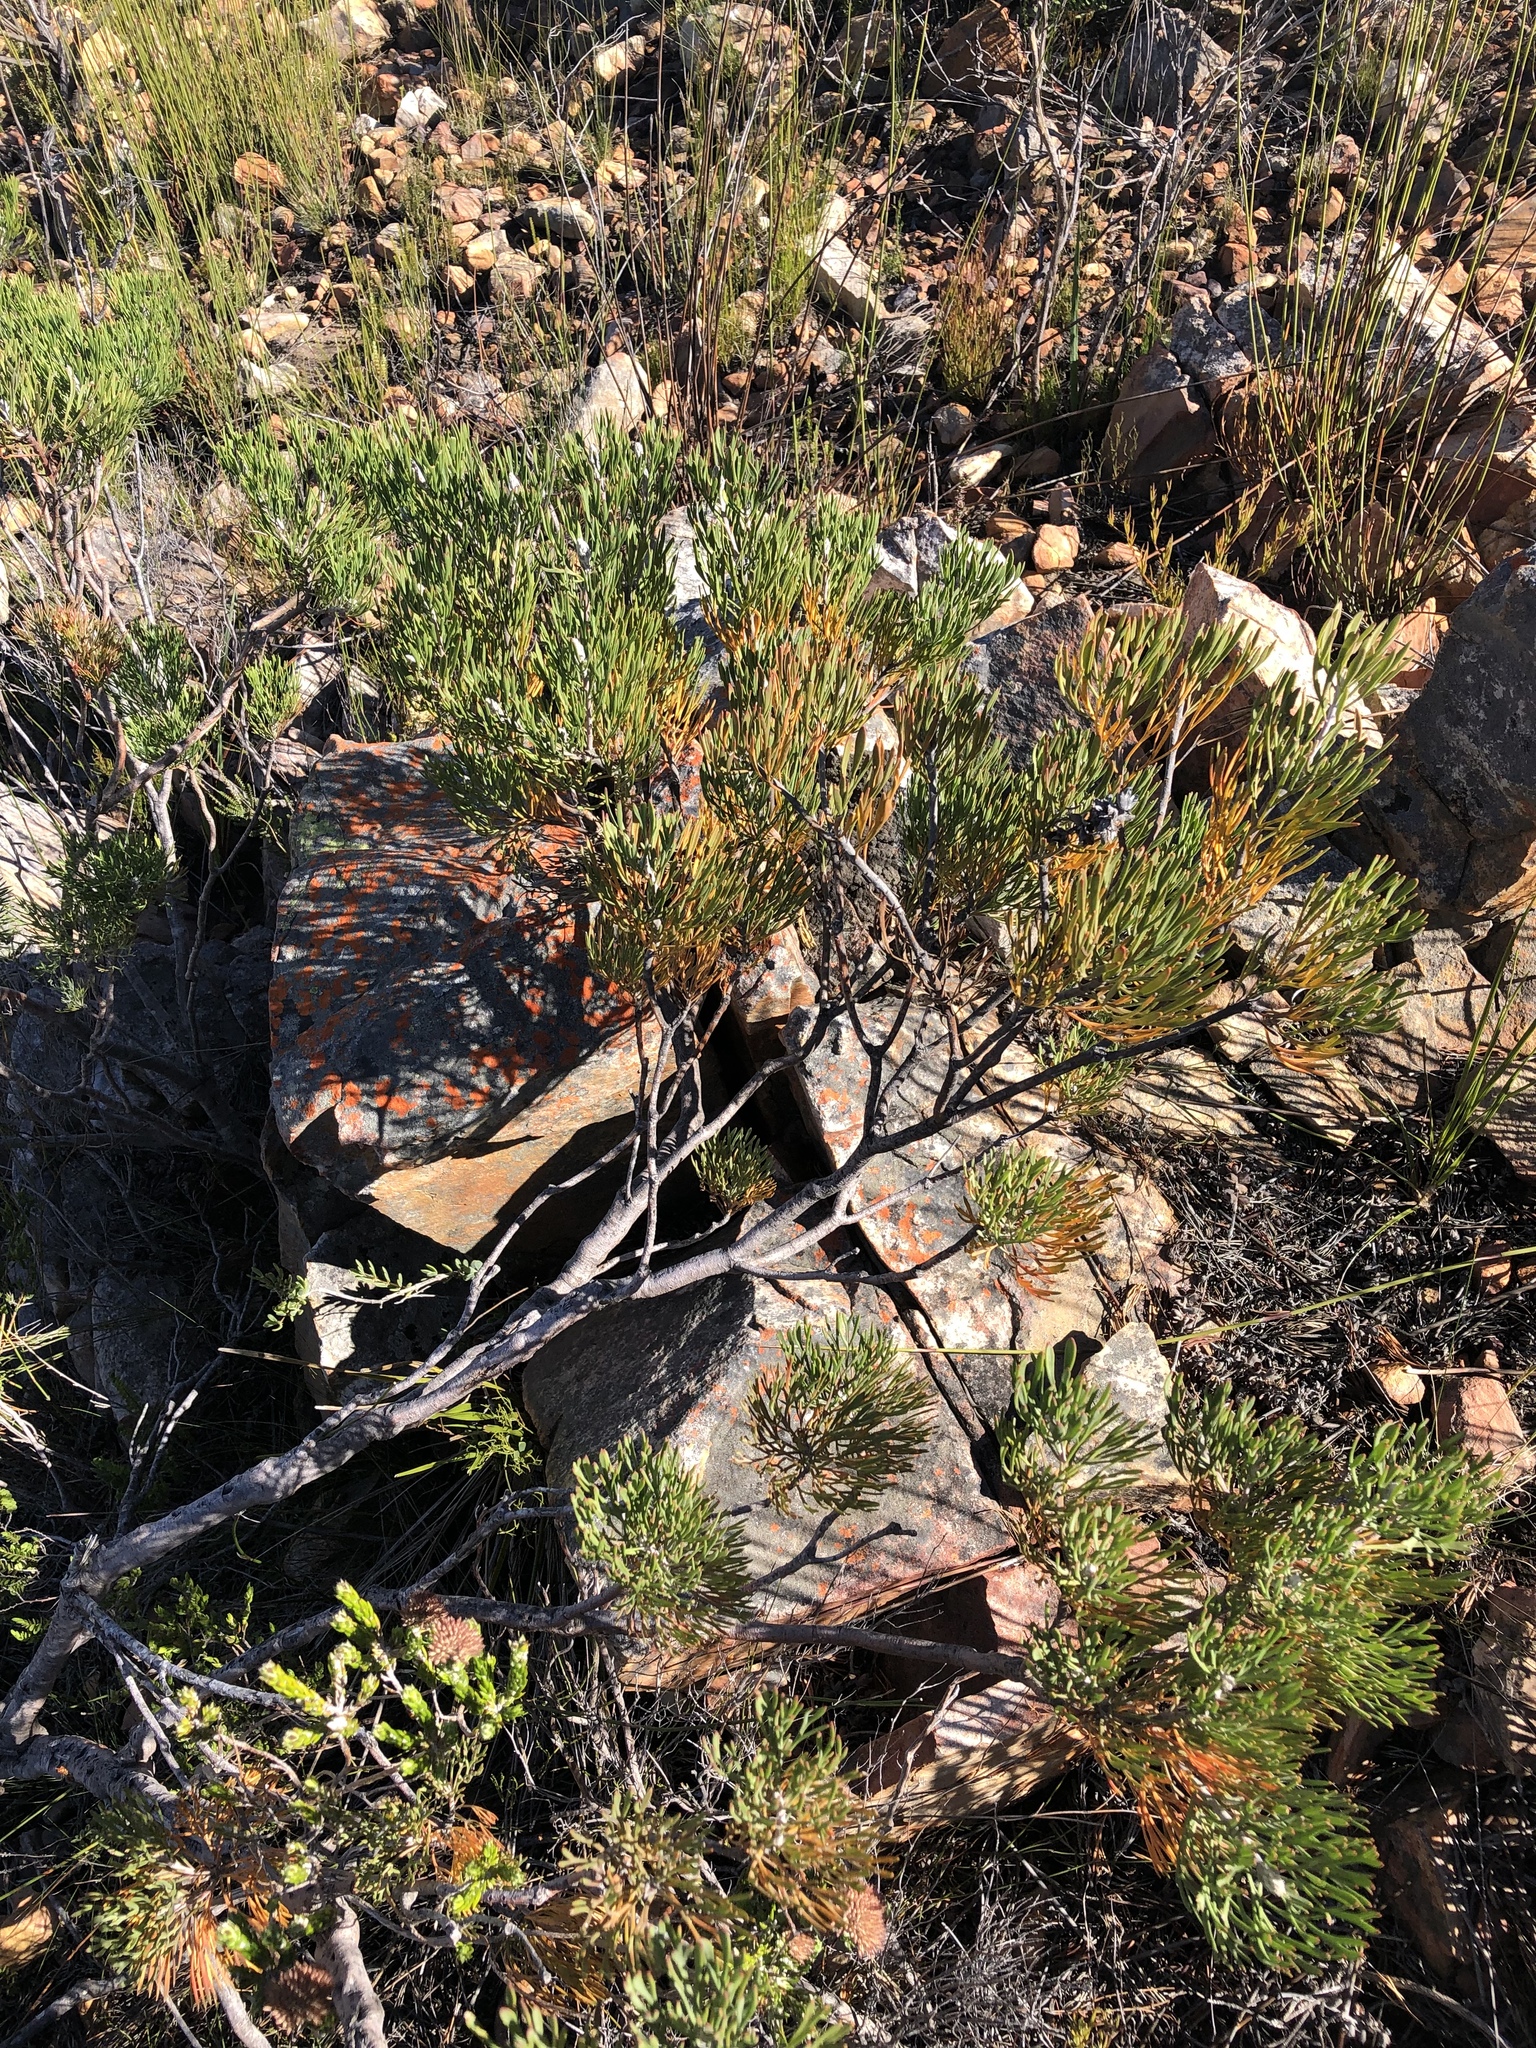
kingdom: Plantae
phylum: Tracheophyta
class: Magnoliopsida
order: Proteales
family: Proteaceae
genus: Paranomus
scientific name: Paranomus dispersus
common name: Long-head sceptre
